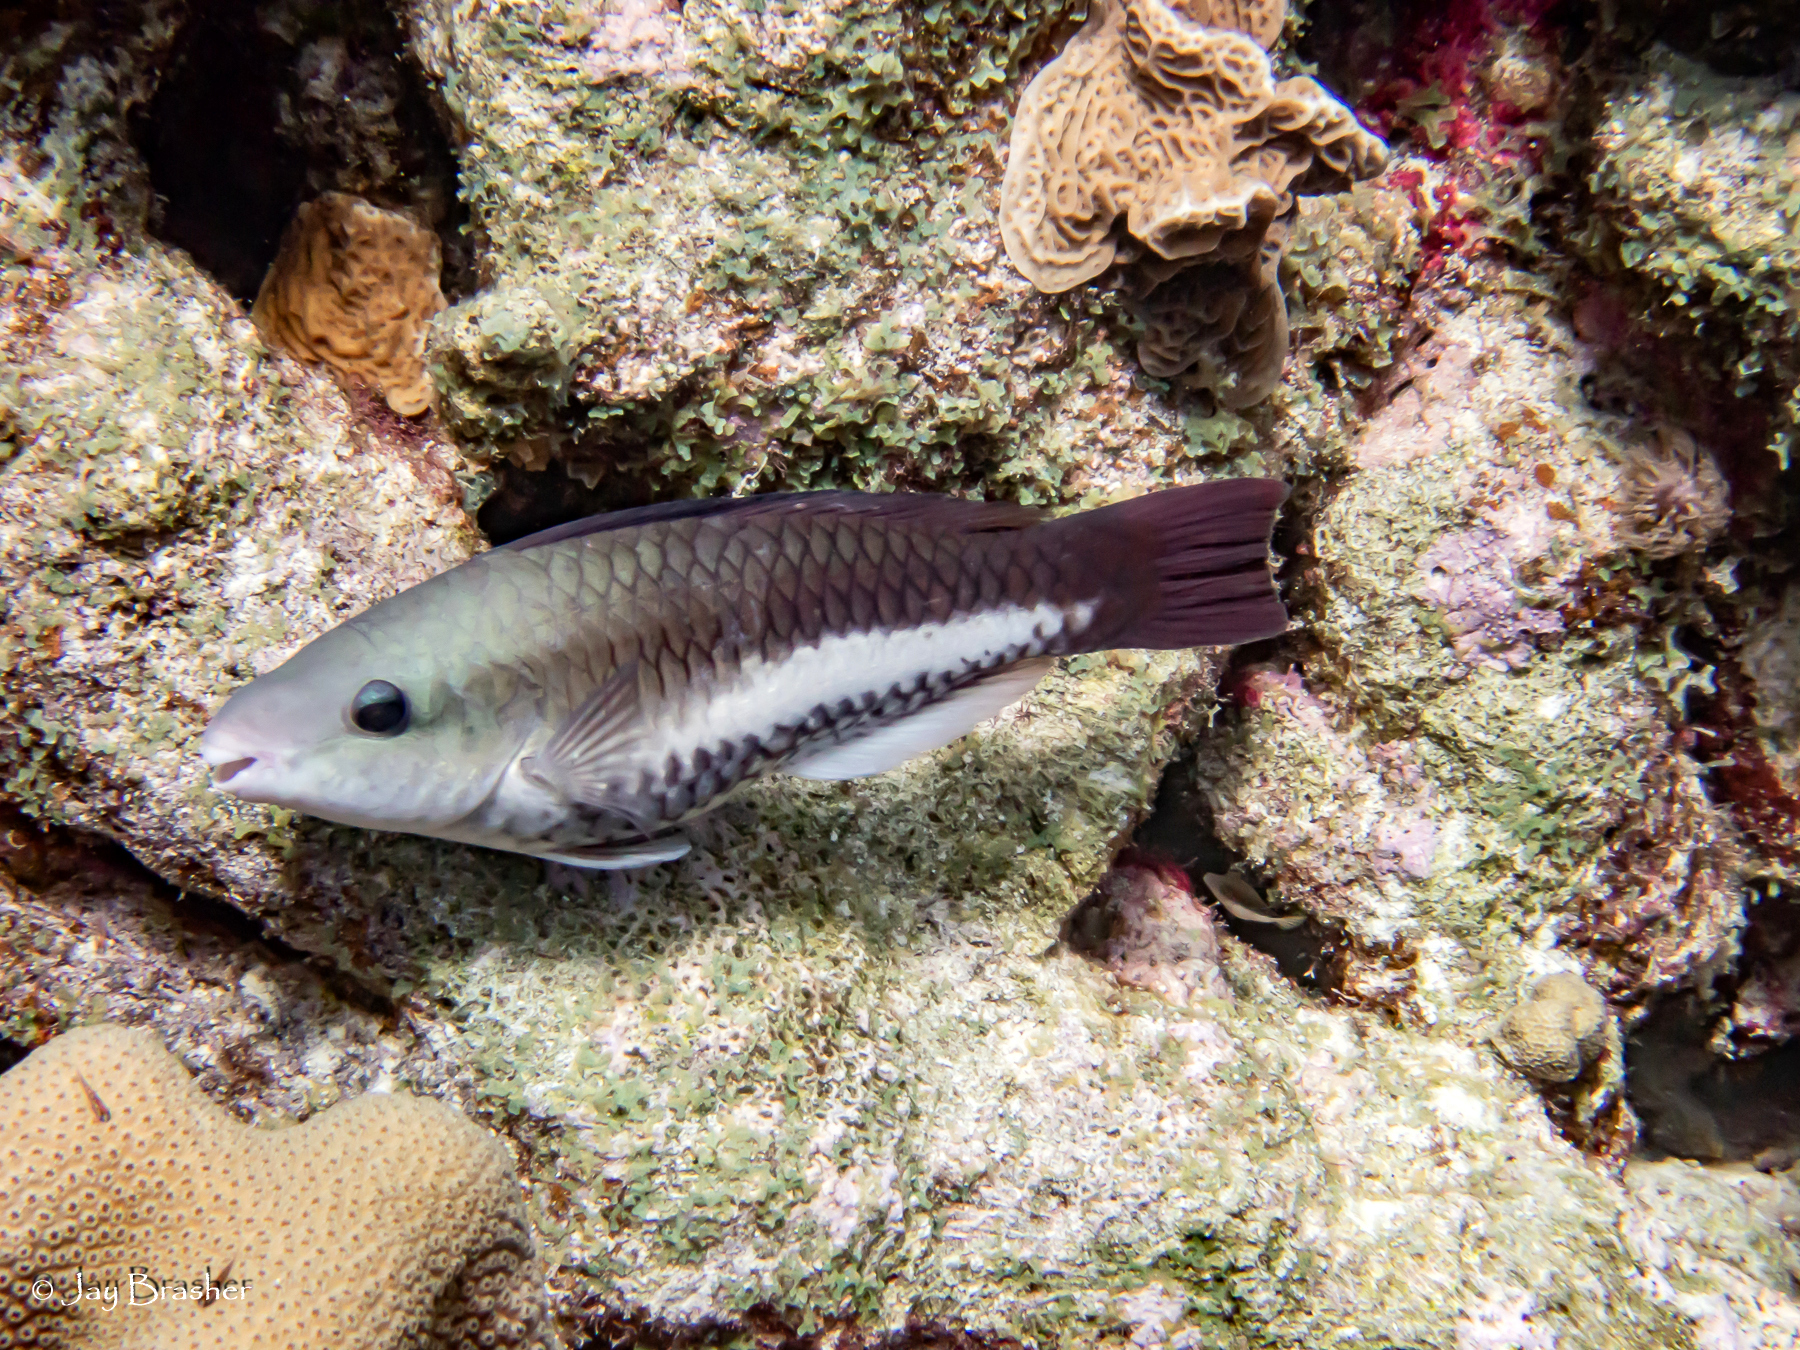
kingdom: Animalia
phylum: Chordata
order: Perciformes
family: Scaridae
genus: Scarus
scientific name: Scarus vetula
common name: Queen parrotfish
